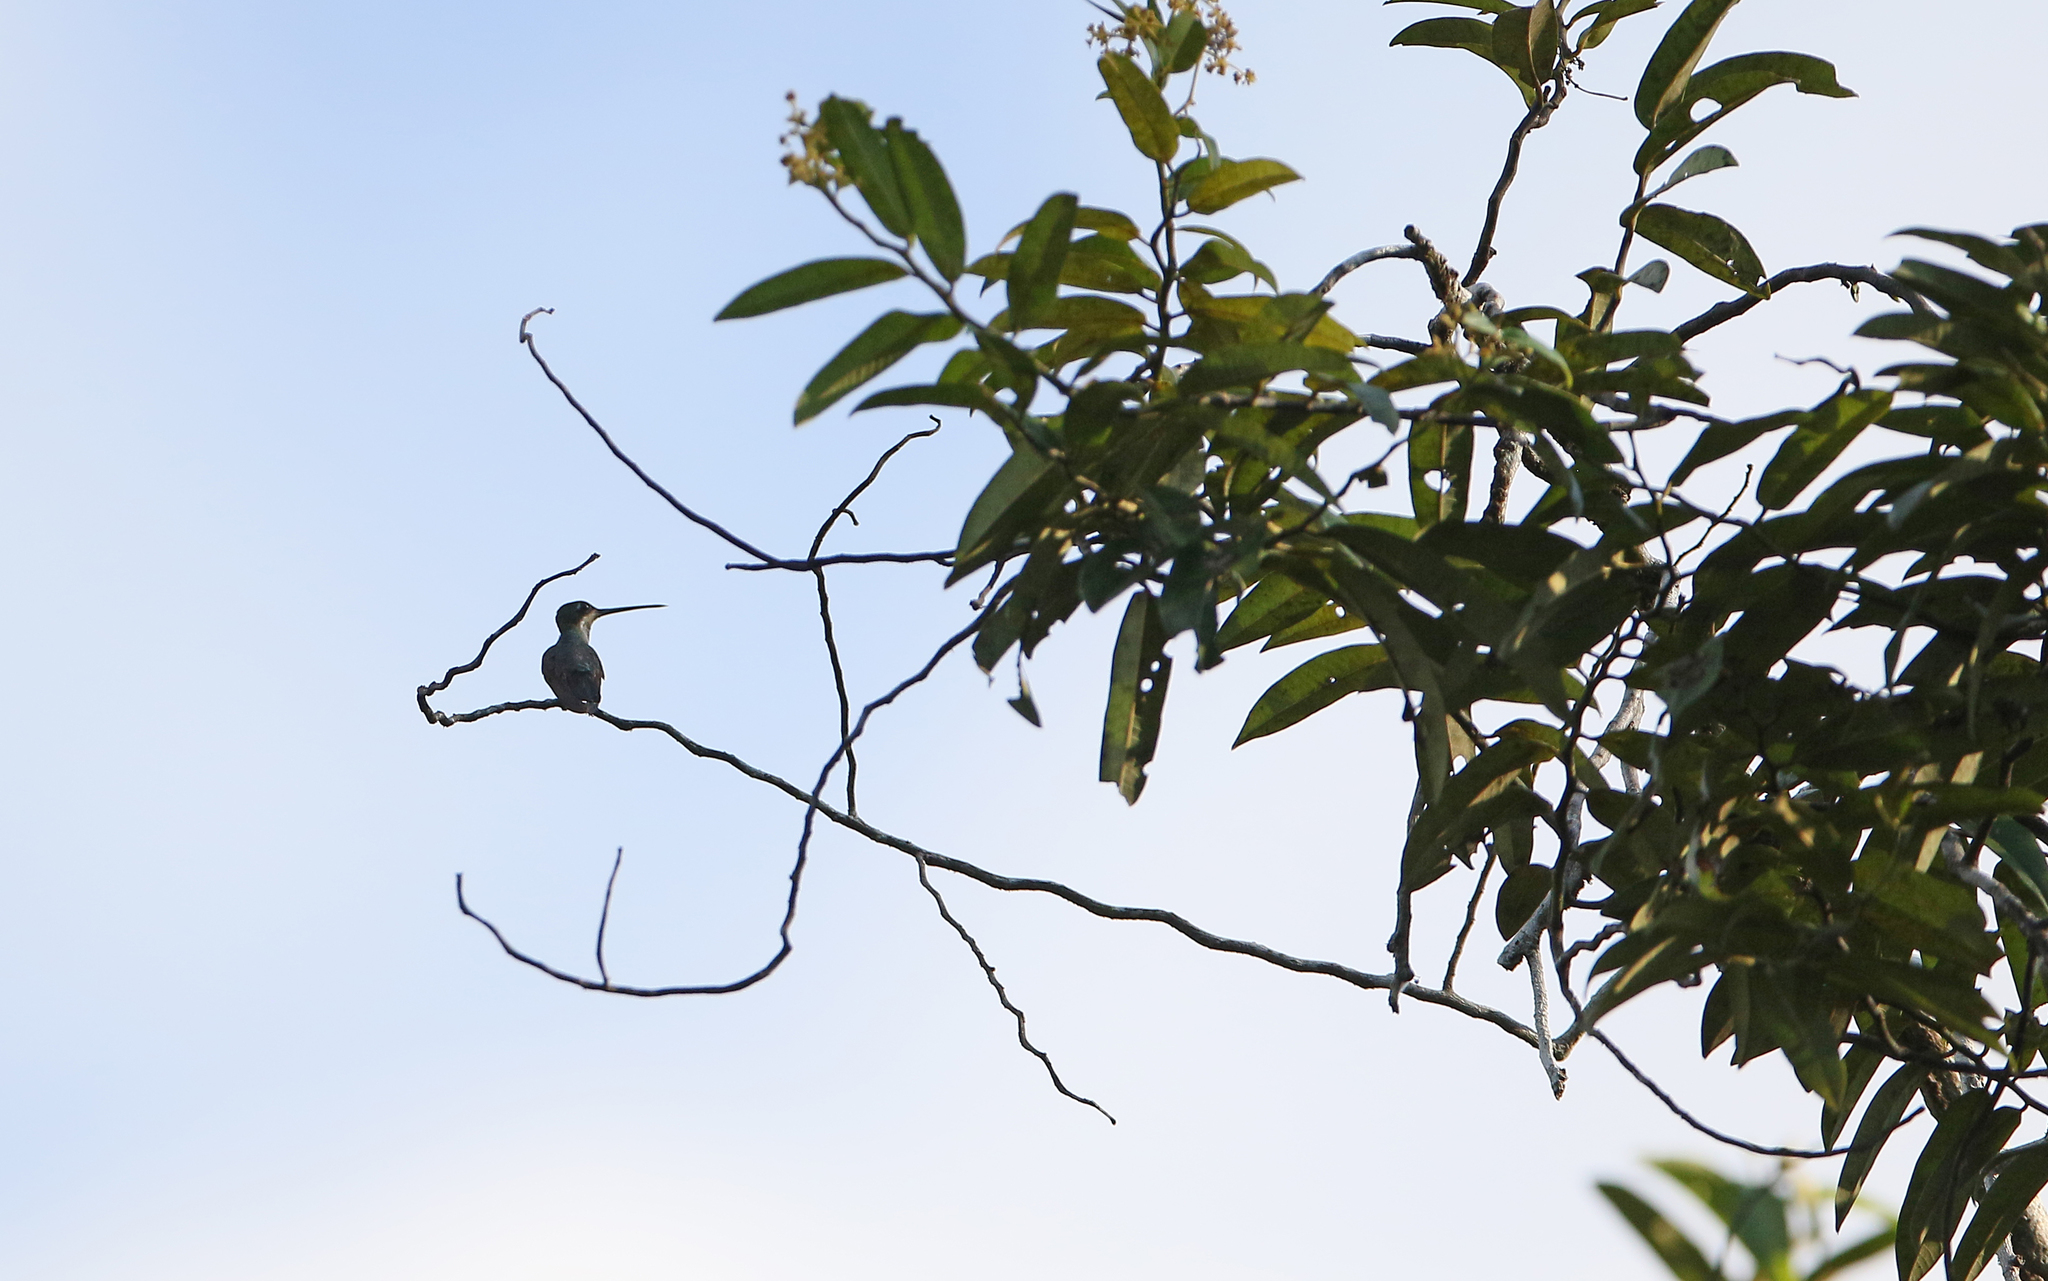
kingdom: Animalia
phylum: Chordata
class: Aves
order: Apodiformes
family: Trochilidae
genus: Heliomaster
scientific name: Heliomaster longirostris
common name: Long-billed starthroat
